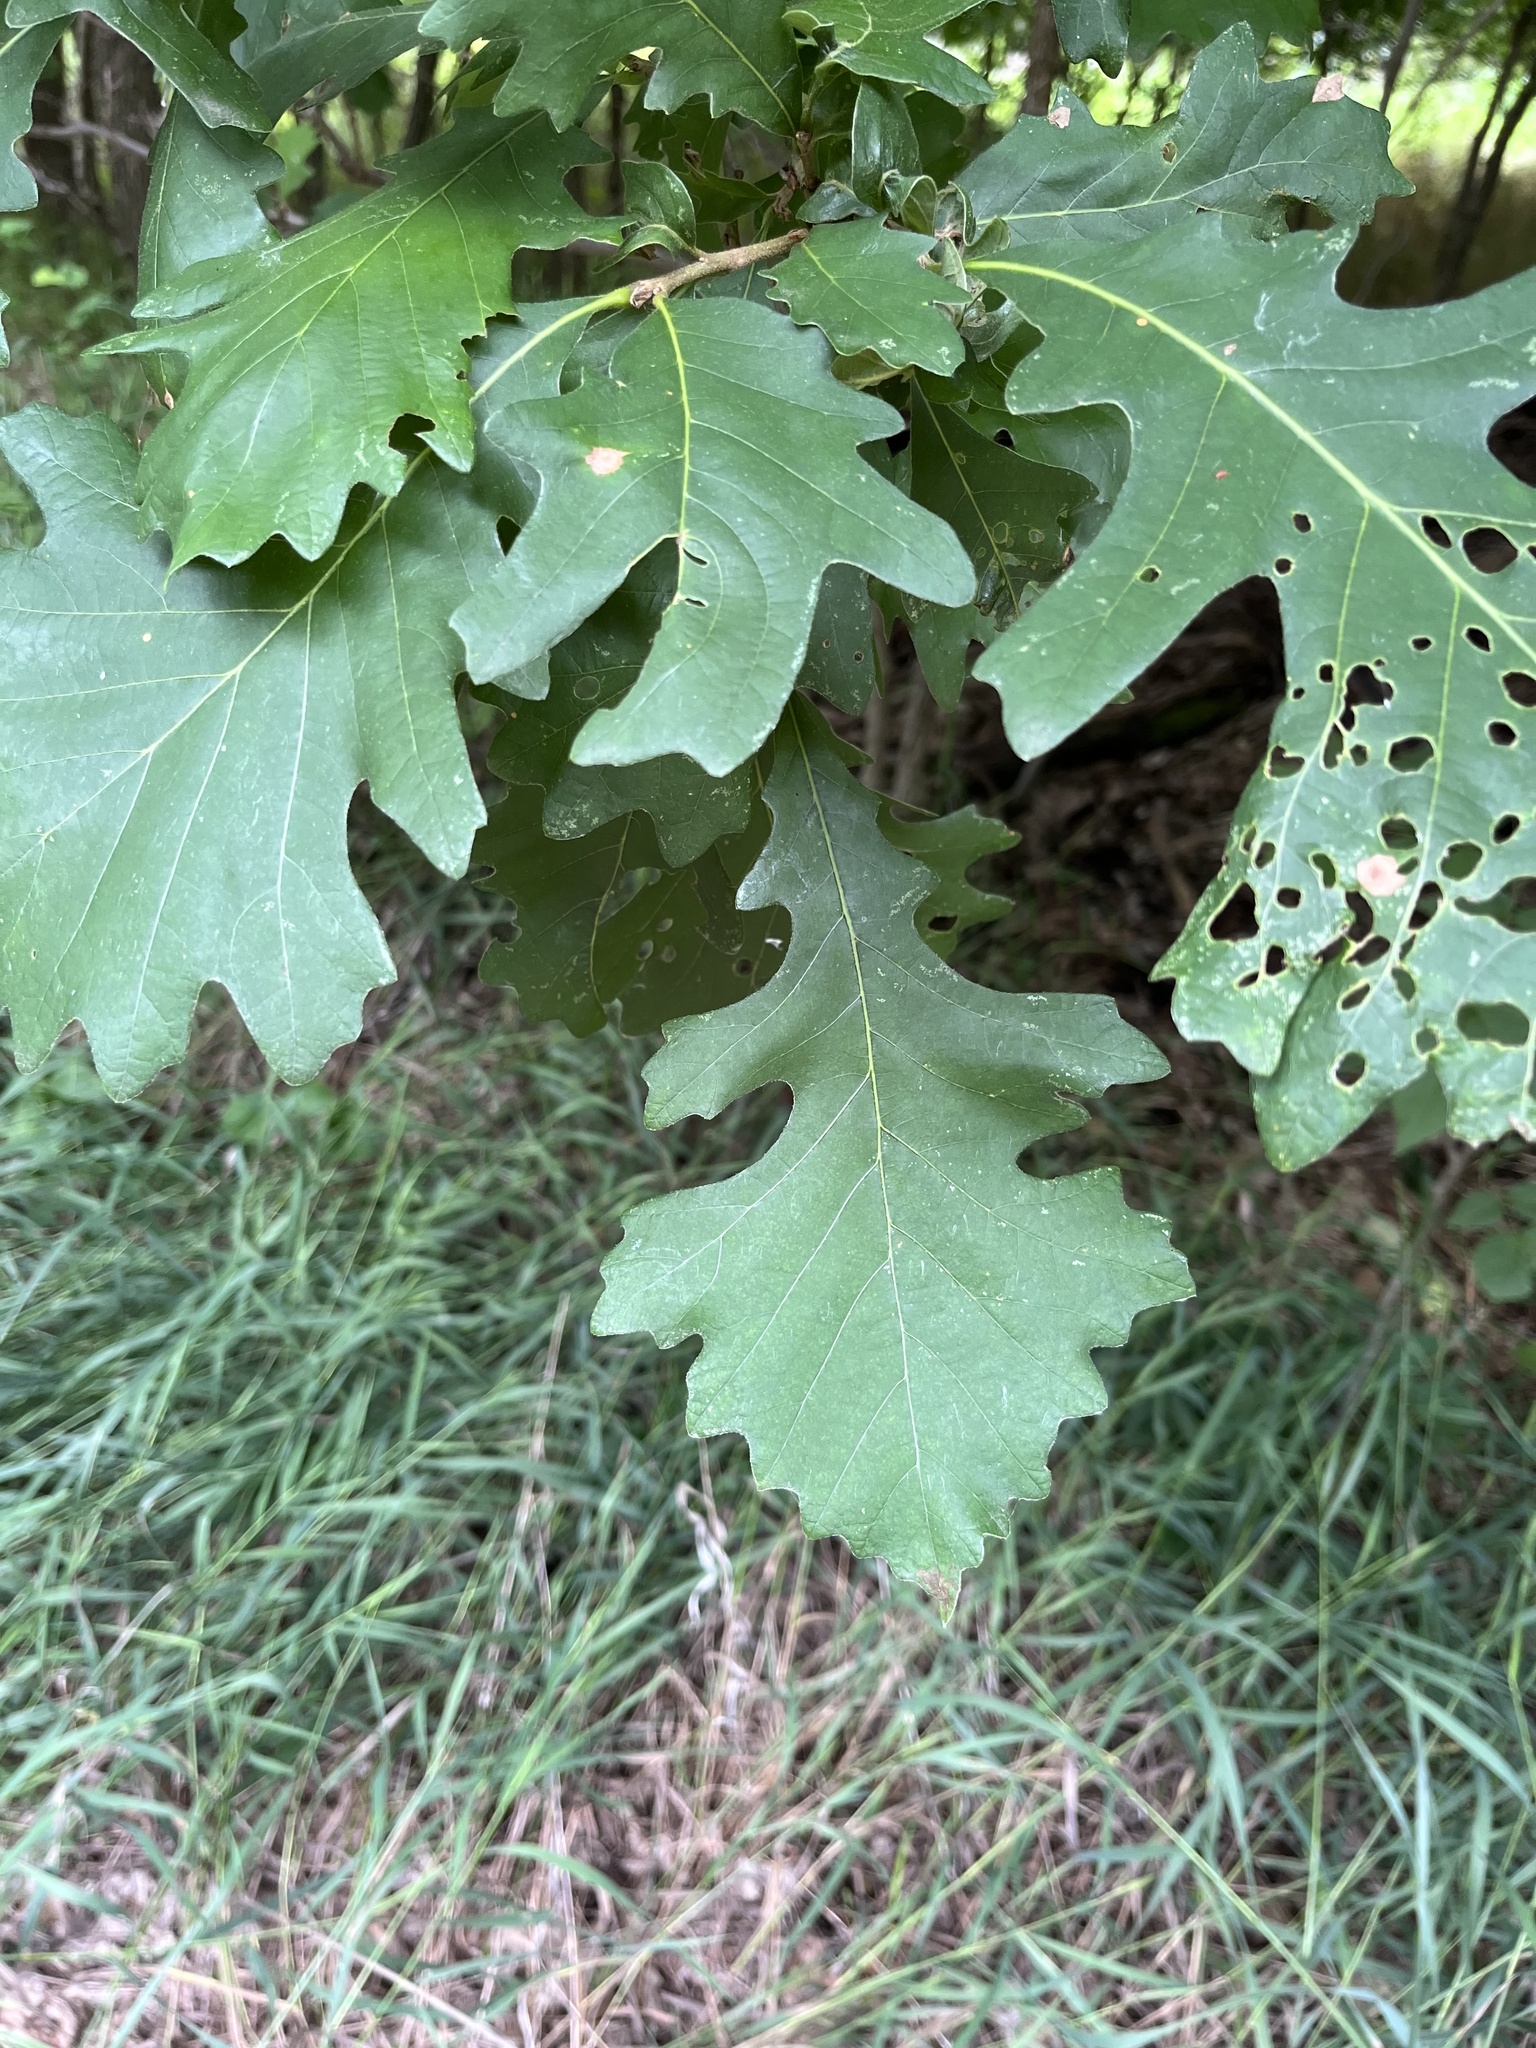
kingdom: Plantae
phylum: Tracheophyta
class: Magnoliopsida
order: Fagales
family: Fagaceae
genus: Quercus
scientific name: Quercus macrocarpa
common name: Bur oak
